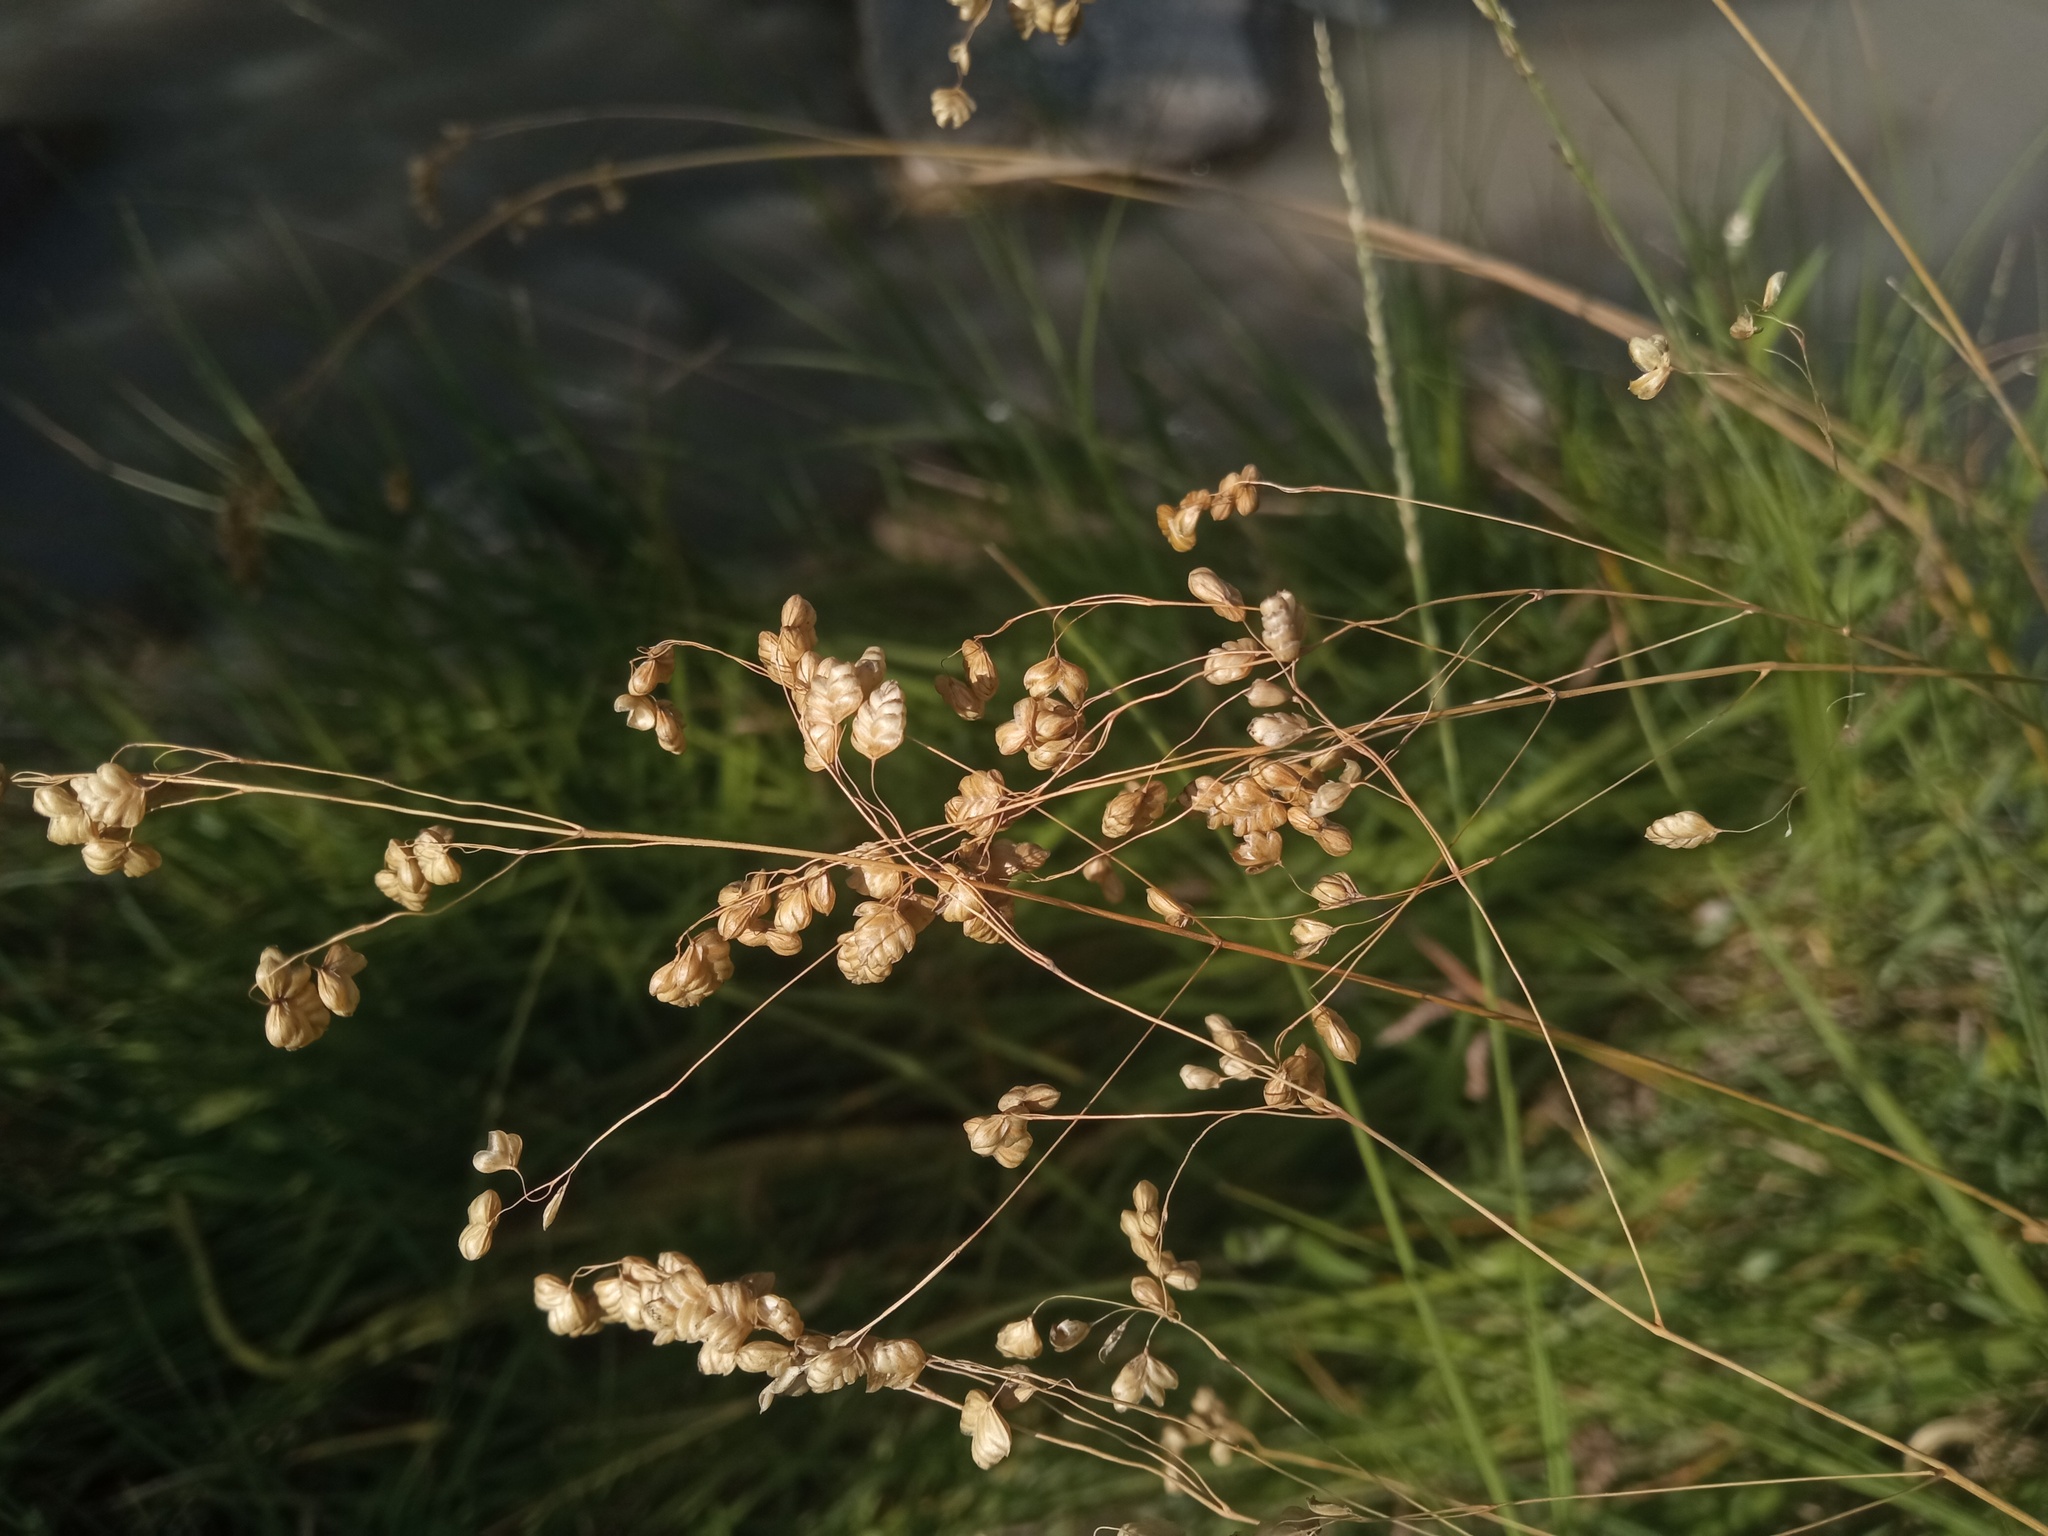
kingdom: Plantae
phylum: Tracheophyta
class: Liliopsida
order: Poales
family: Poaceae
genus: Briza
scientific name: Briza media
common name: Quaking grass
